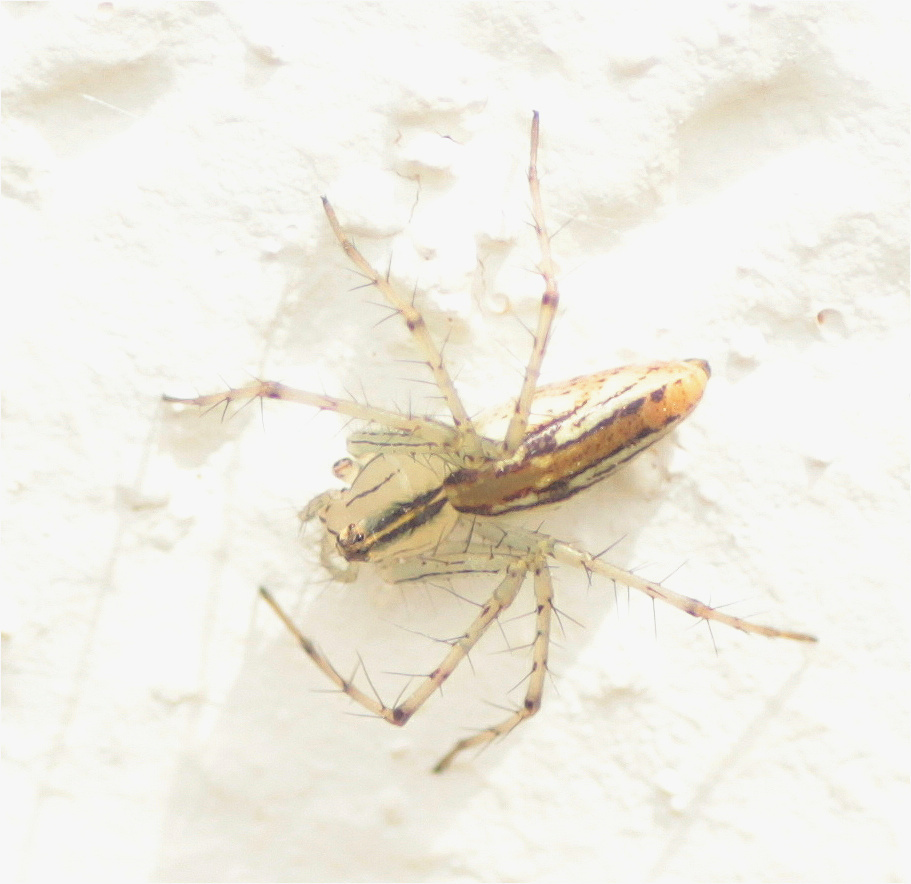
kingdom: Animalia
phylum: Arthropoda
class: Arachnida
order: Araneae
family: Oxyopidae
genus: Peucetia
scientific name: Peucetia rubrolineata
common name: Lynx spiders
